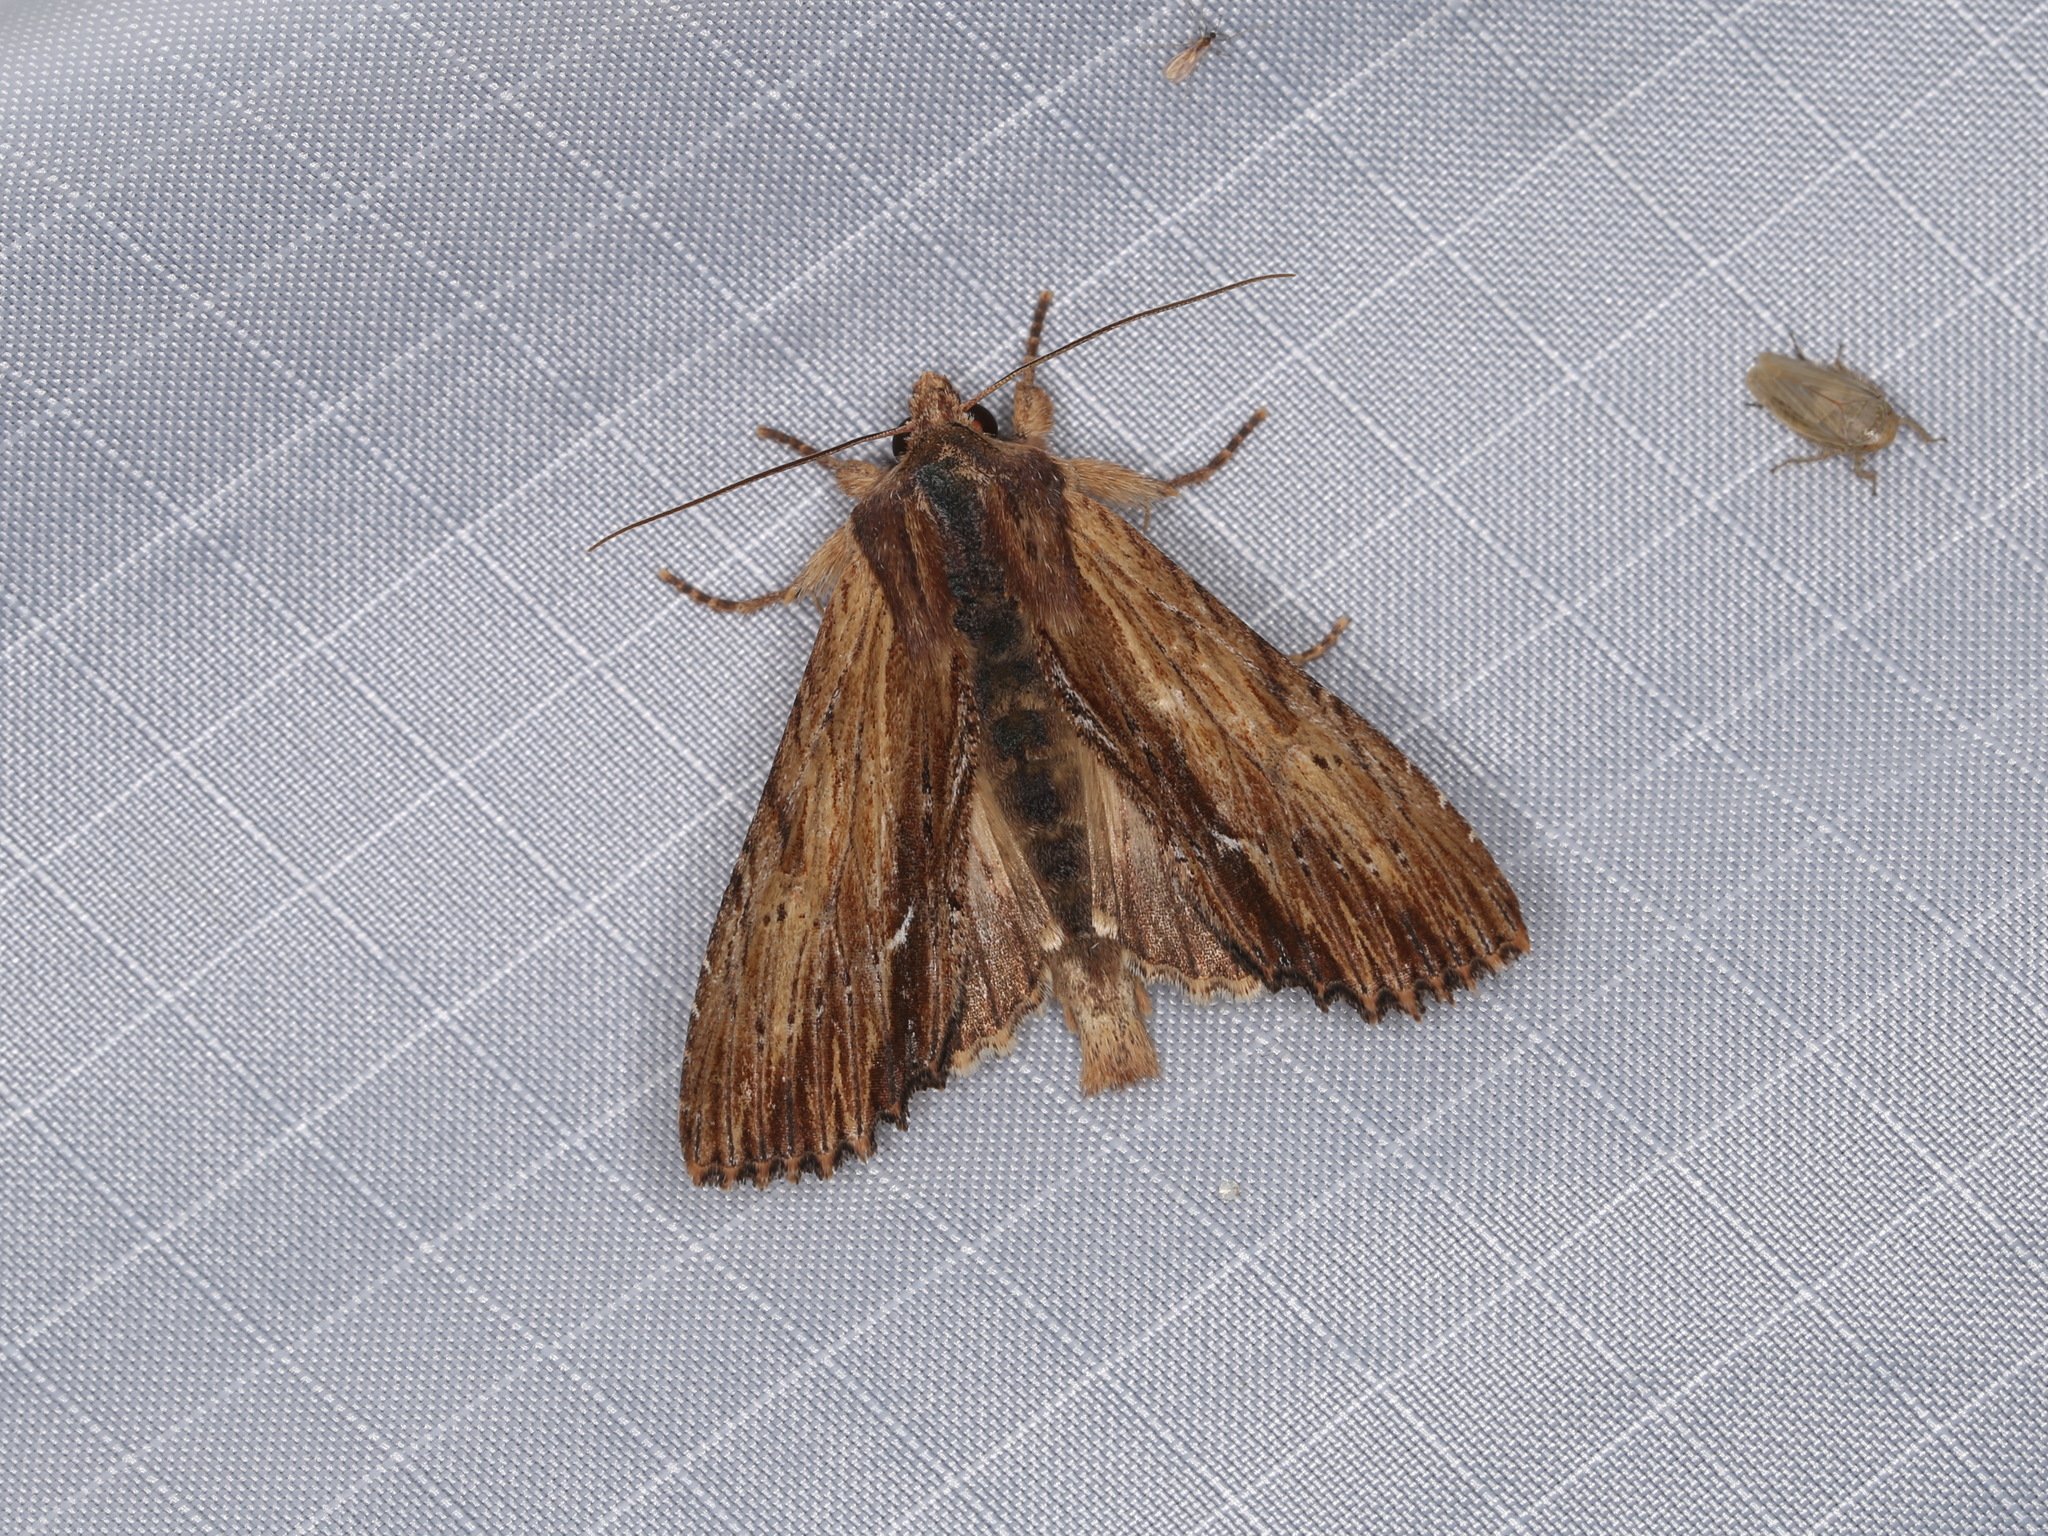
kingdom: Animalia
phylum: Arthropoda
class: Insecta
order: Lepidoptera
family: Noctuidae
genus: Apamea
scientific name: Apamea cuculliformis
